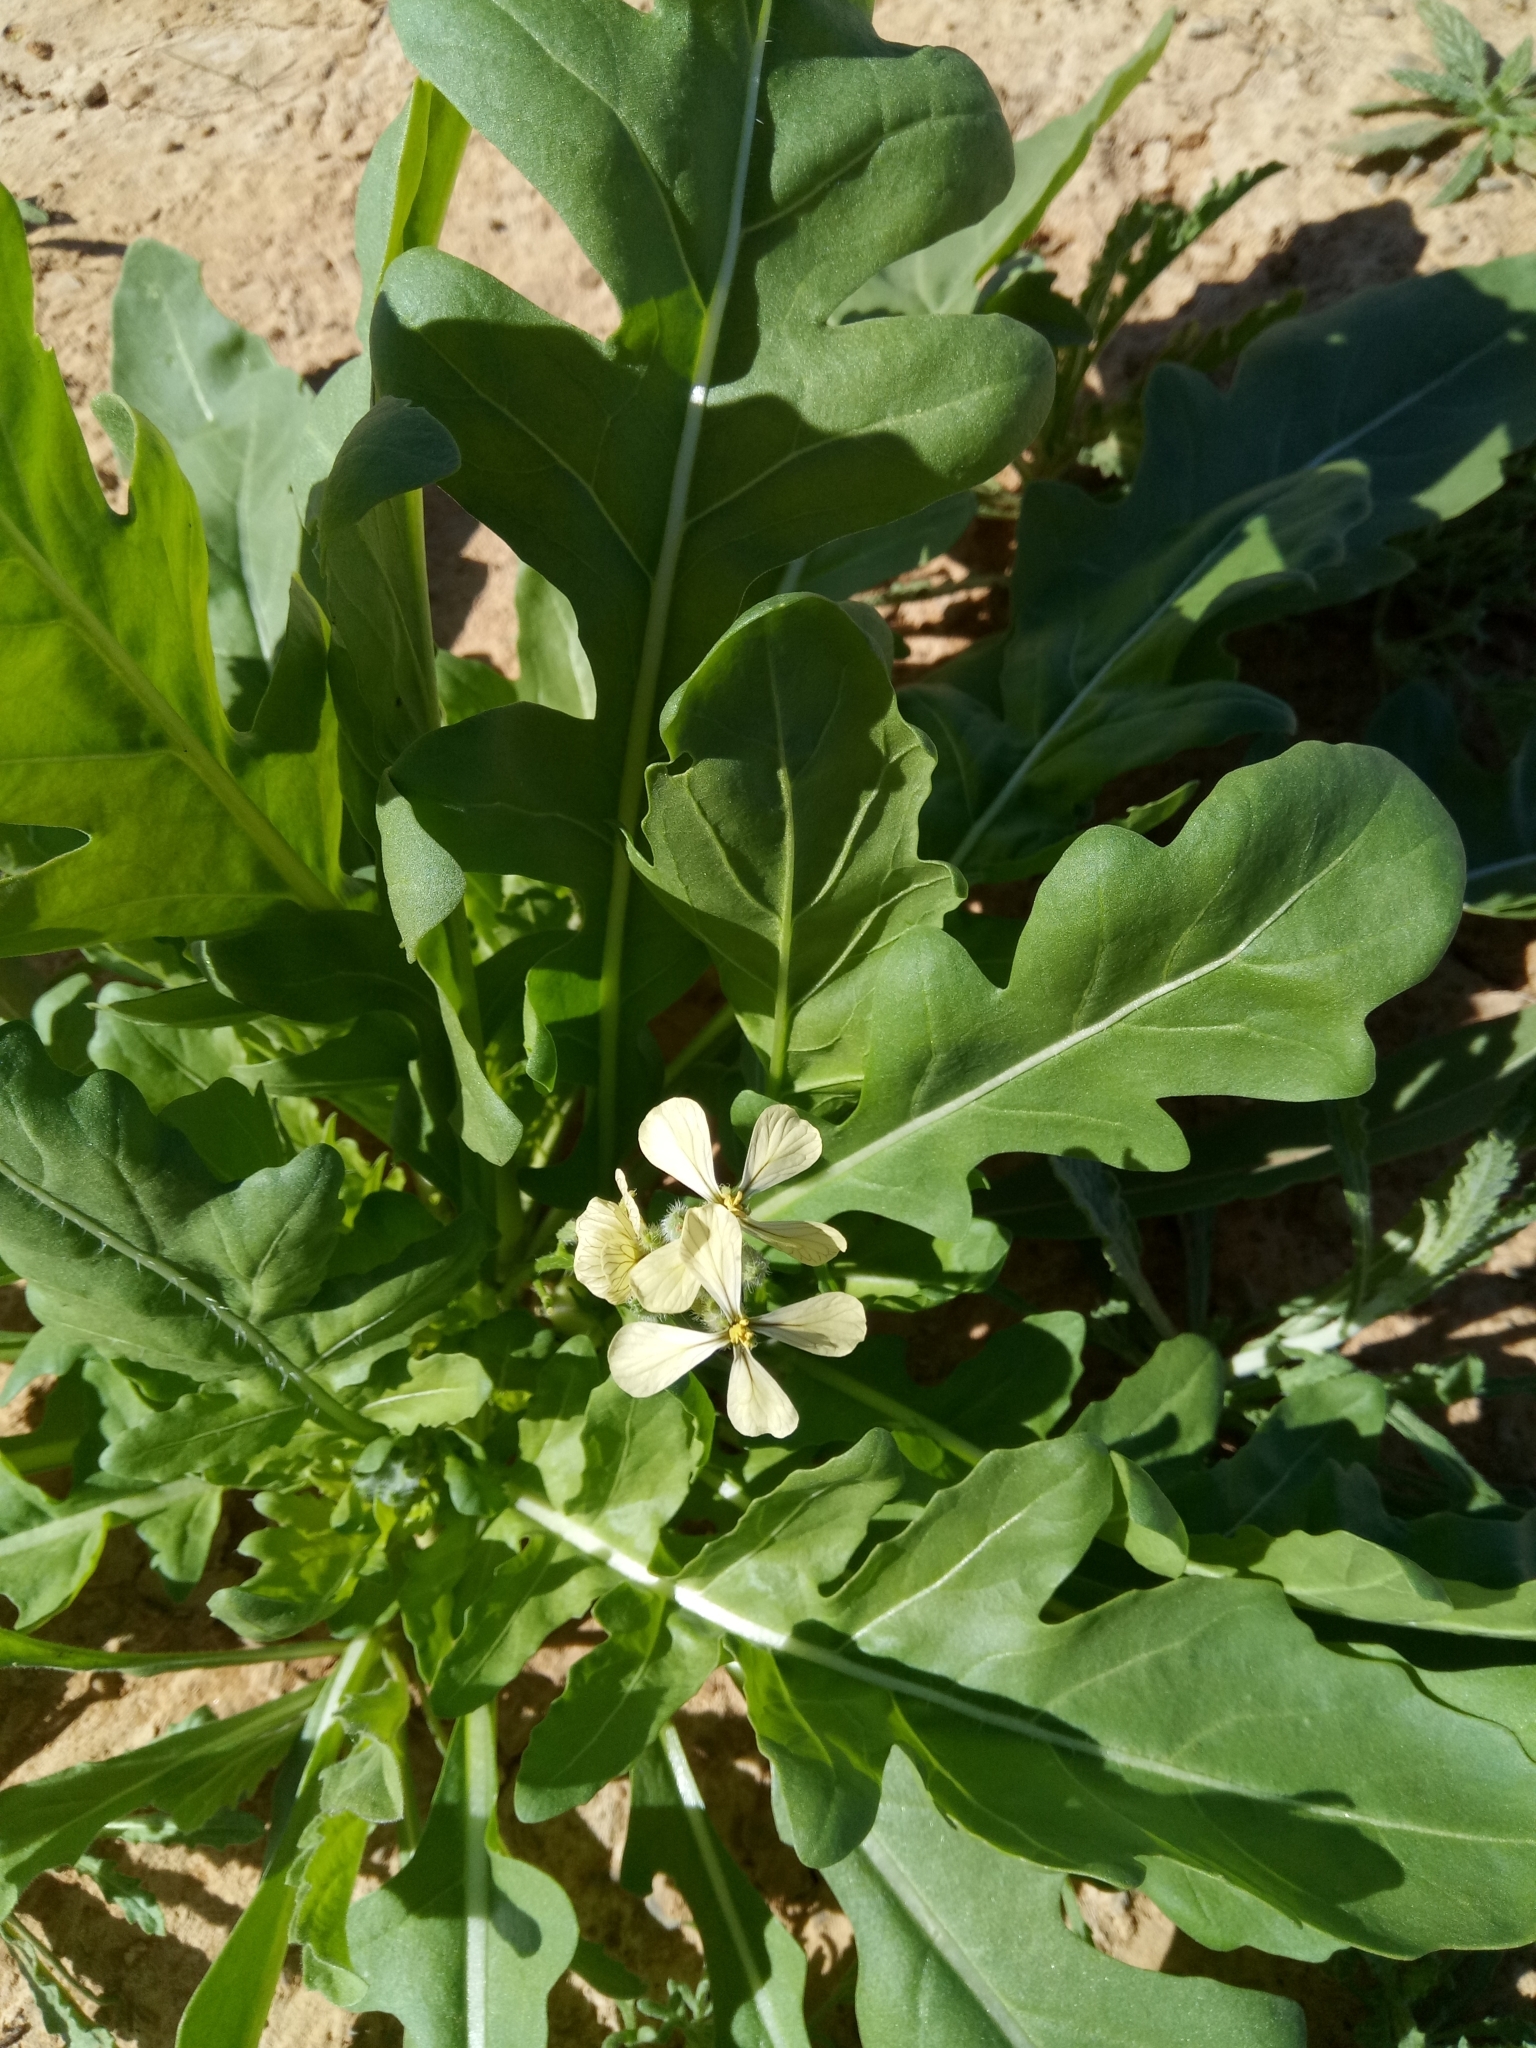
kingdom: Plantae
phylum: Tracheophyta
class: Magnoliopsida
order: Brassicales
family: Brassicaceae
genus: Eruca
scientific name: Eruca vesicaria
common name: Garden rocket
